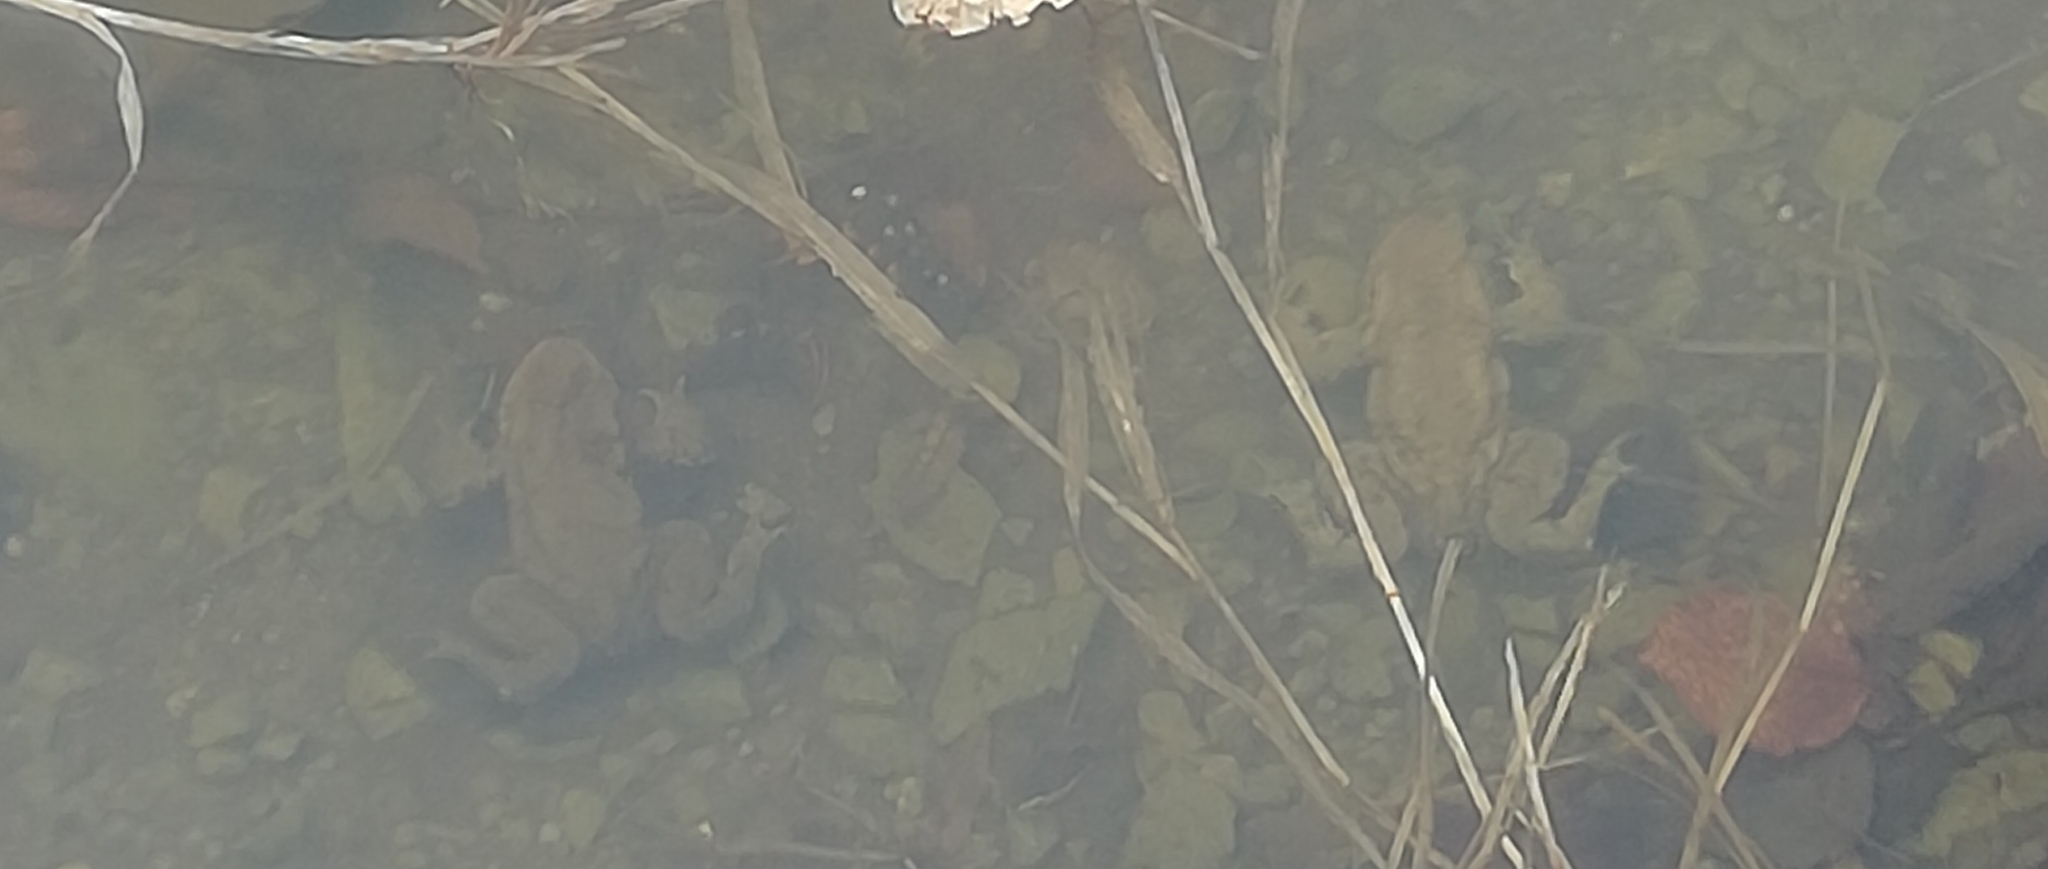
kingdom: Animalia
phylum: Chordata
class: Amphibia
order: Anura
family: Bufonidae
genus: Bufo
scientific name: Bufo bufo
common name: Common toad
